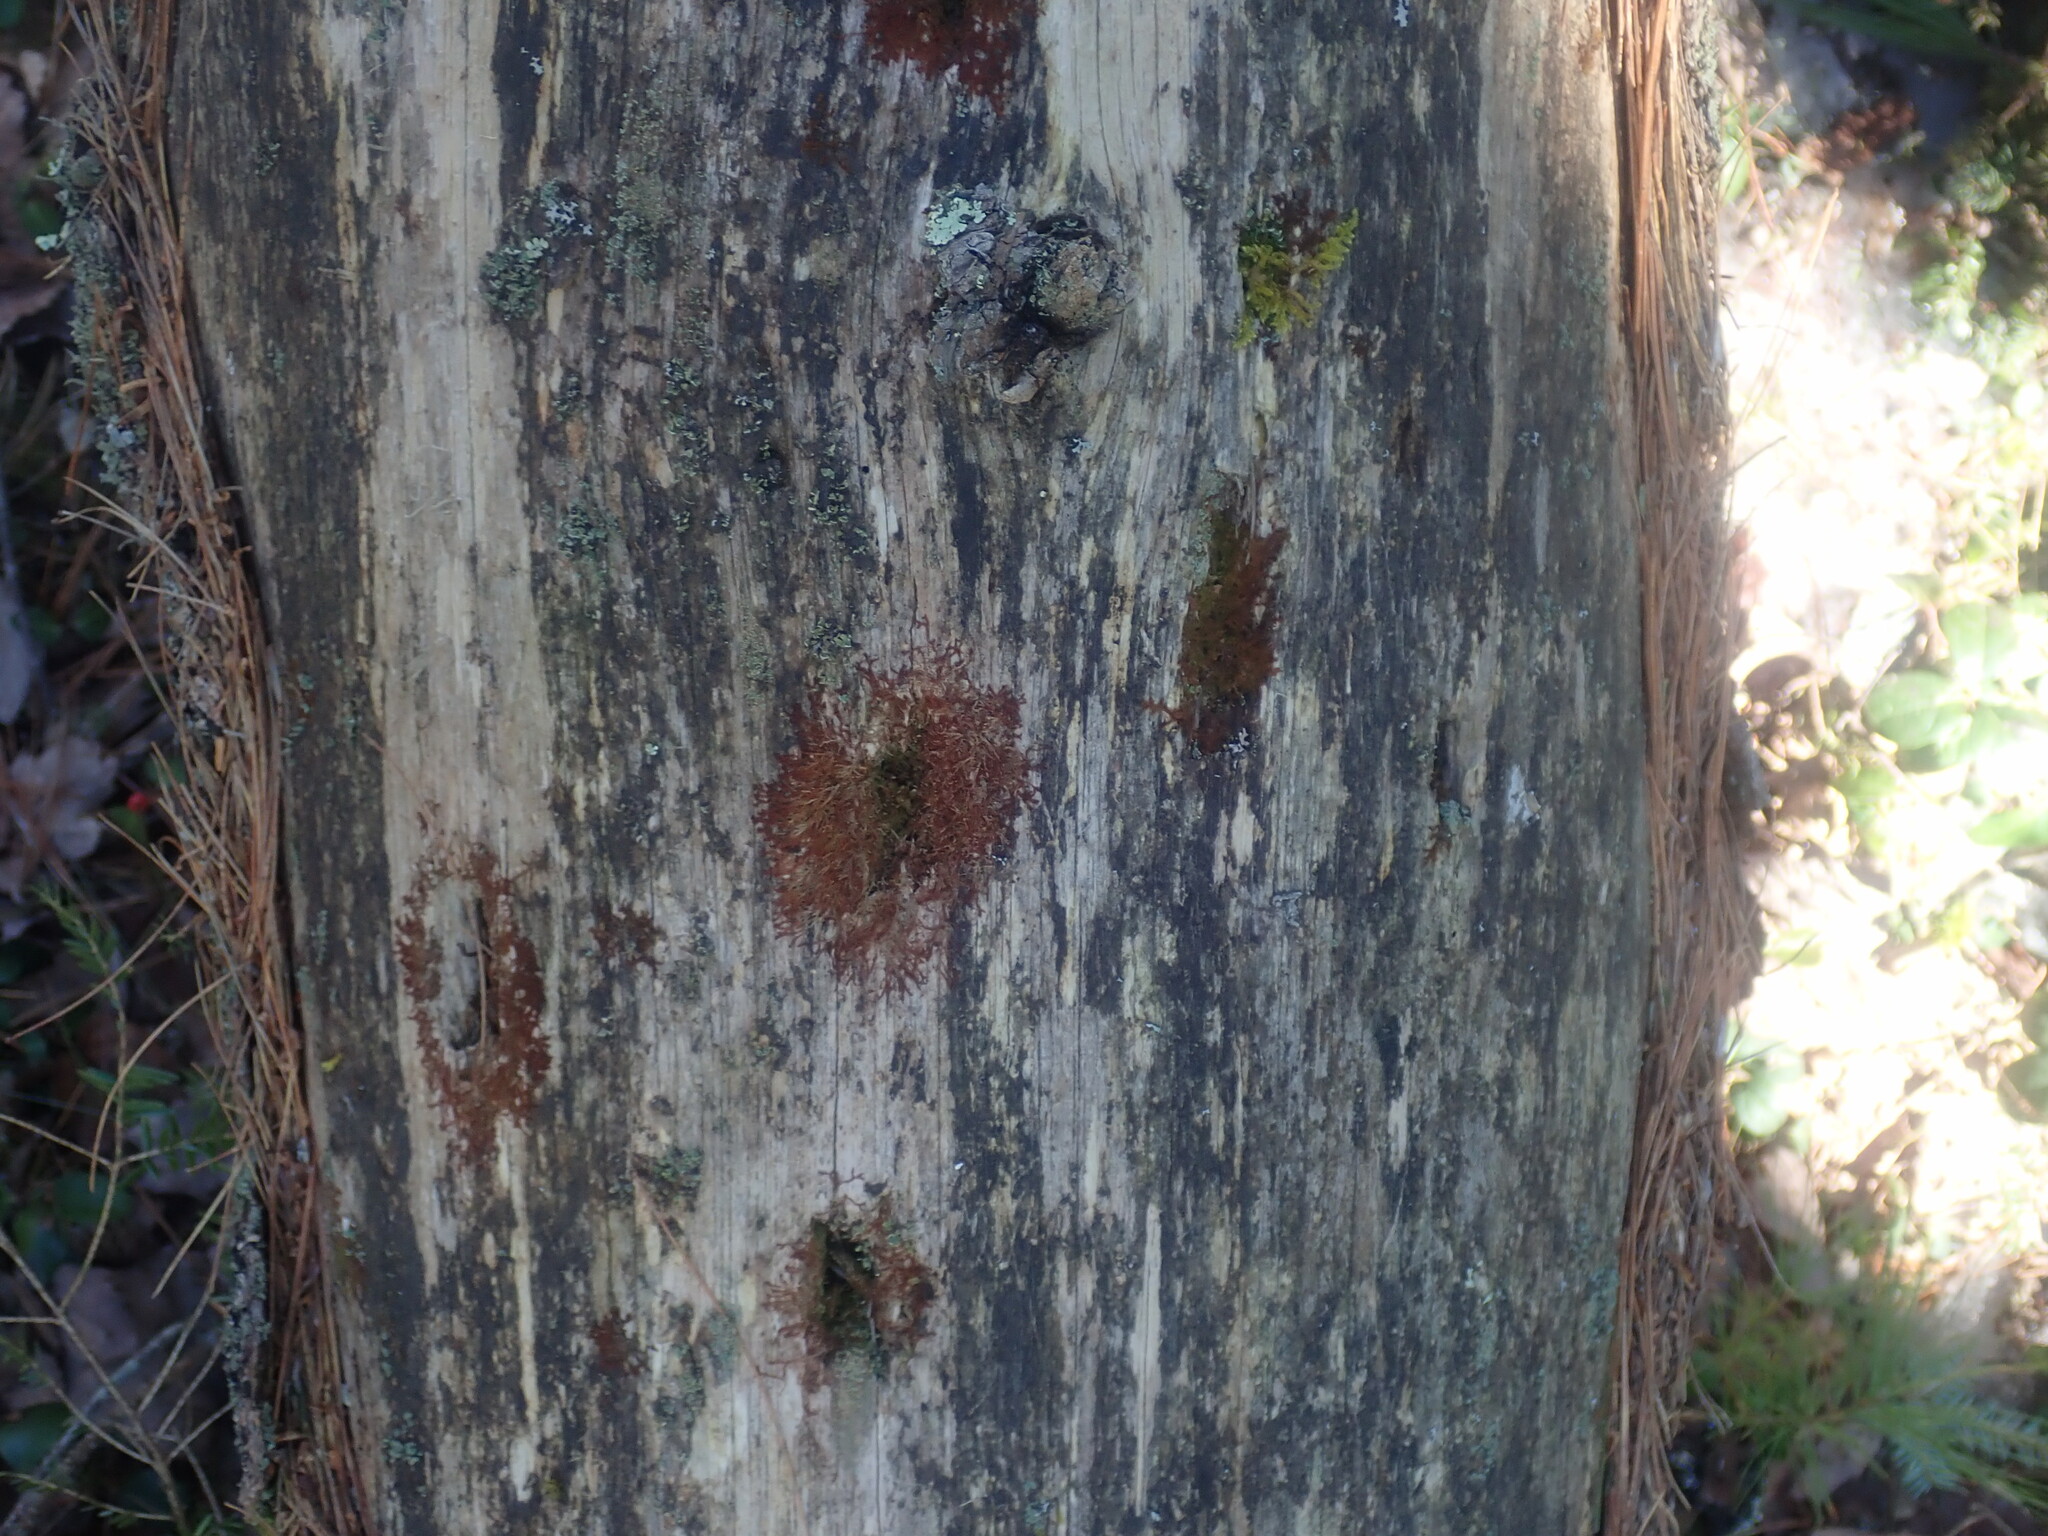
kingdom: Plantae
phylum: Marchantiophyta
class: Jungermanniopsida
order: Jungermanniales
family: Cephaloziaceae
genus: Nowellia
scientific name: Nowellia curvifolia
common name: Wood rustwort
